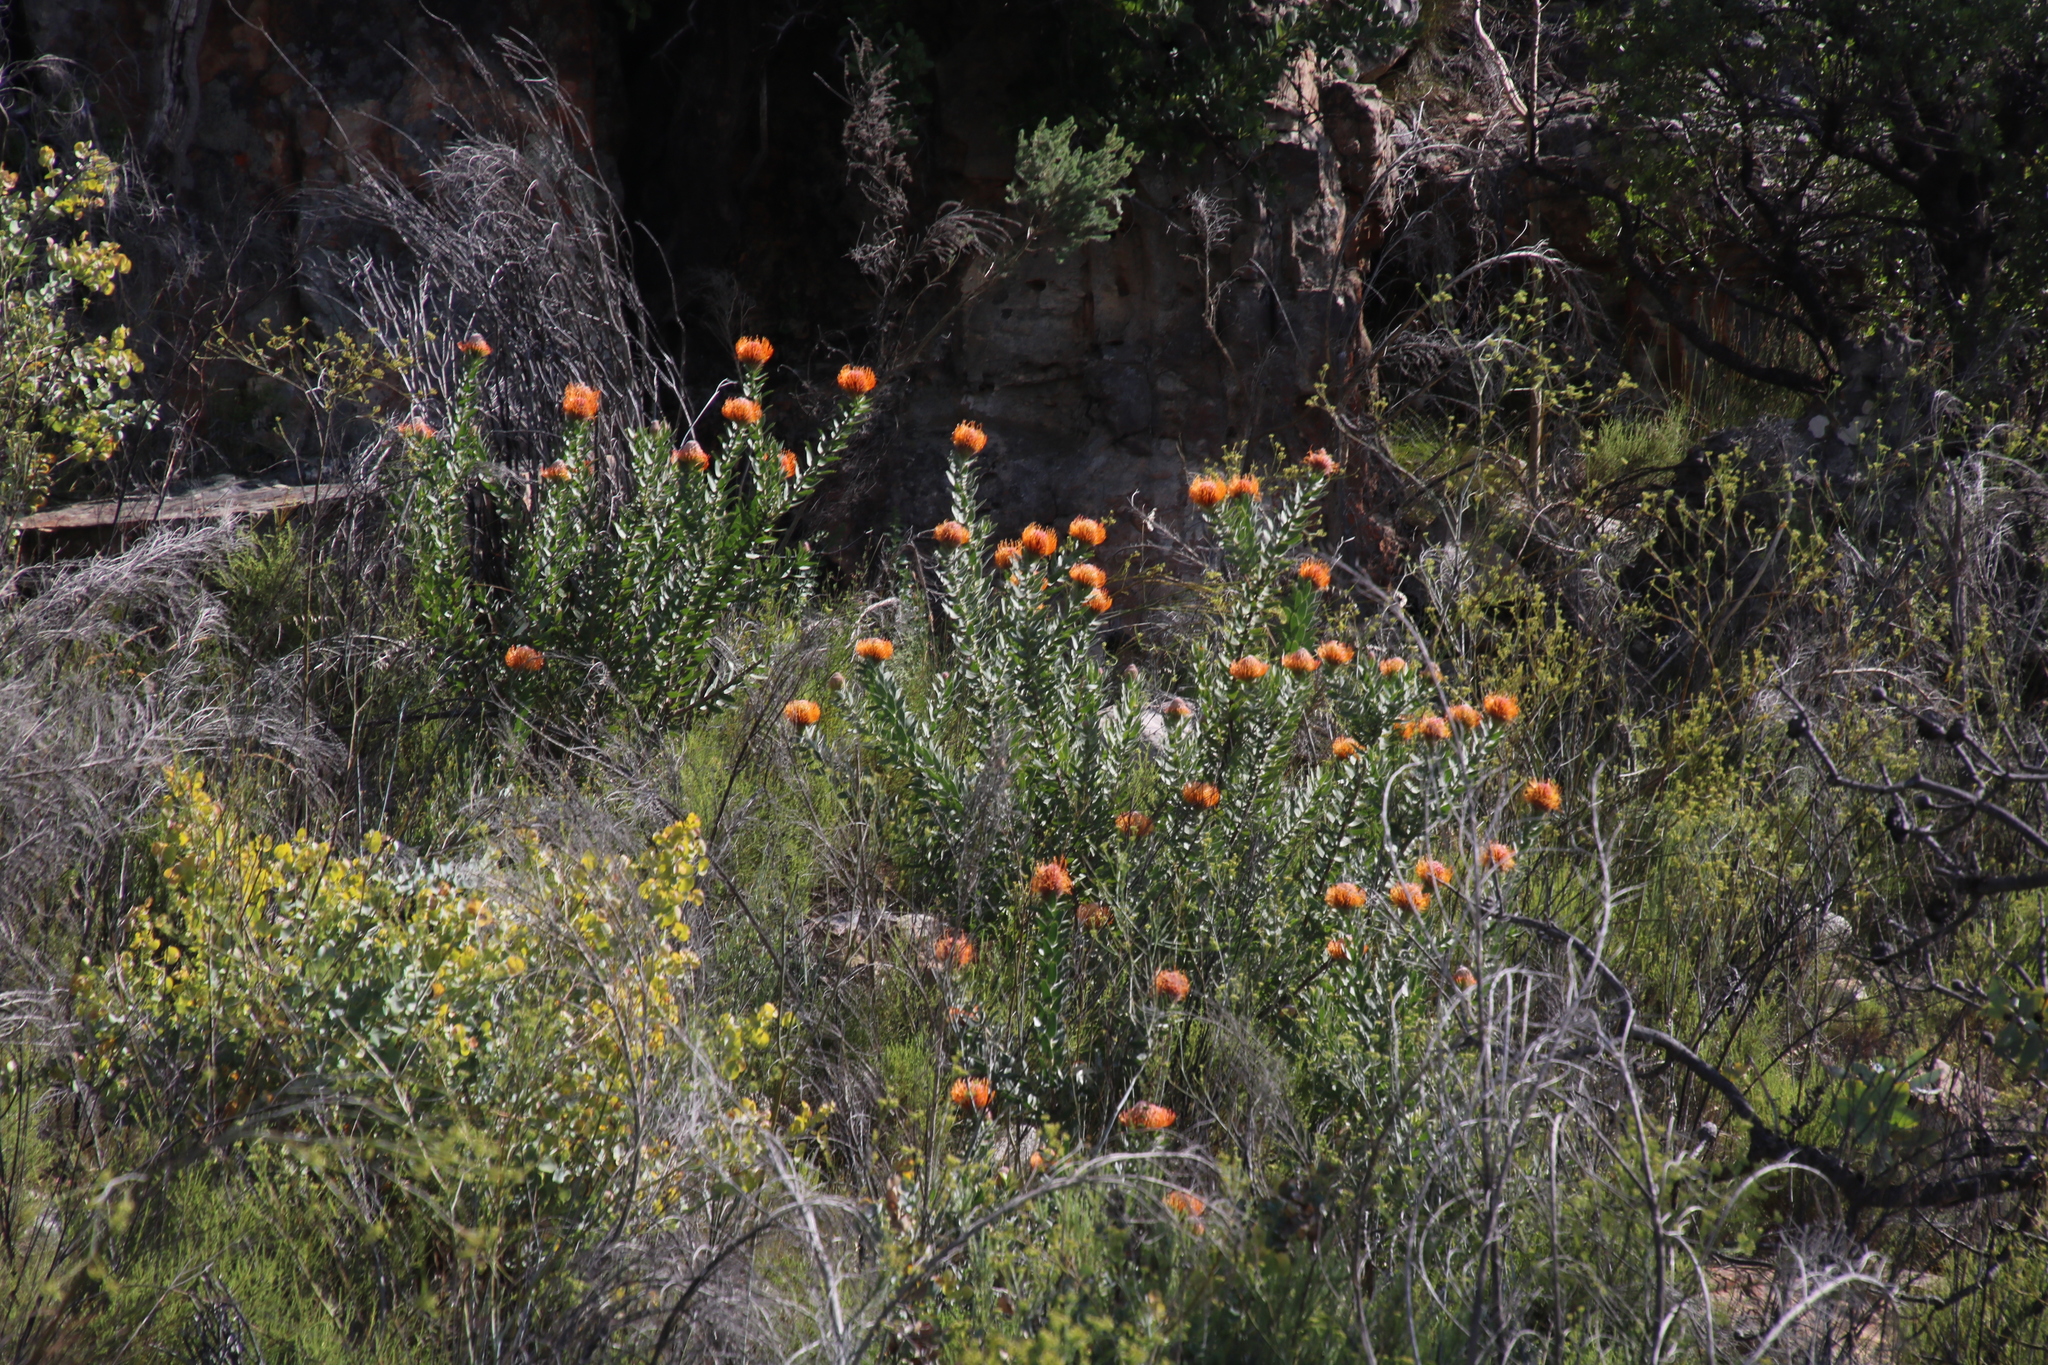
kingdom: Plantae
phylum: Tracheophyta
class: Magnoliopsida
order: Proteales
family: Proteaceae
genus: Leucospermum
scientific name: Leucospermum vestitum
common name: Silky-hair pincushion
